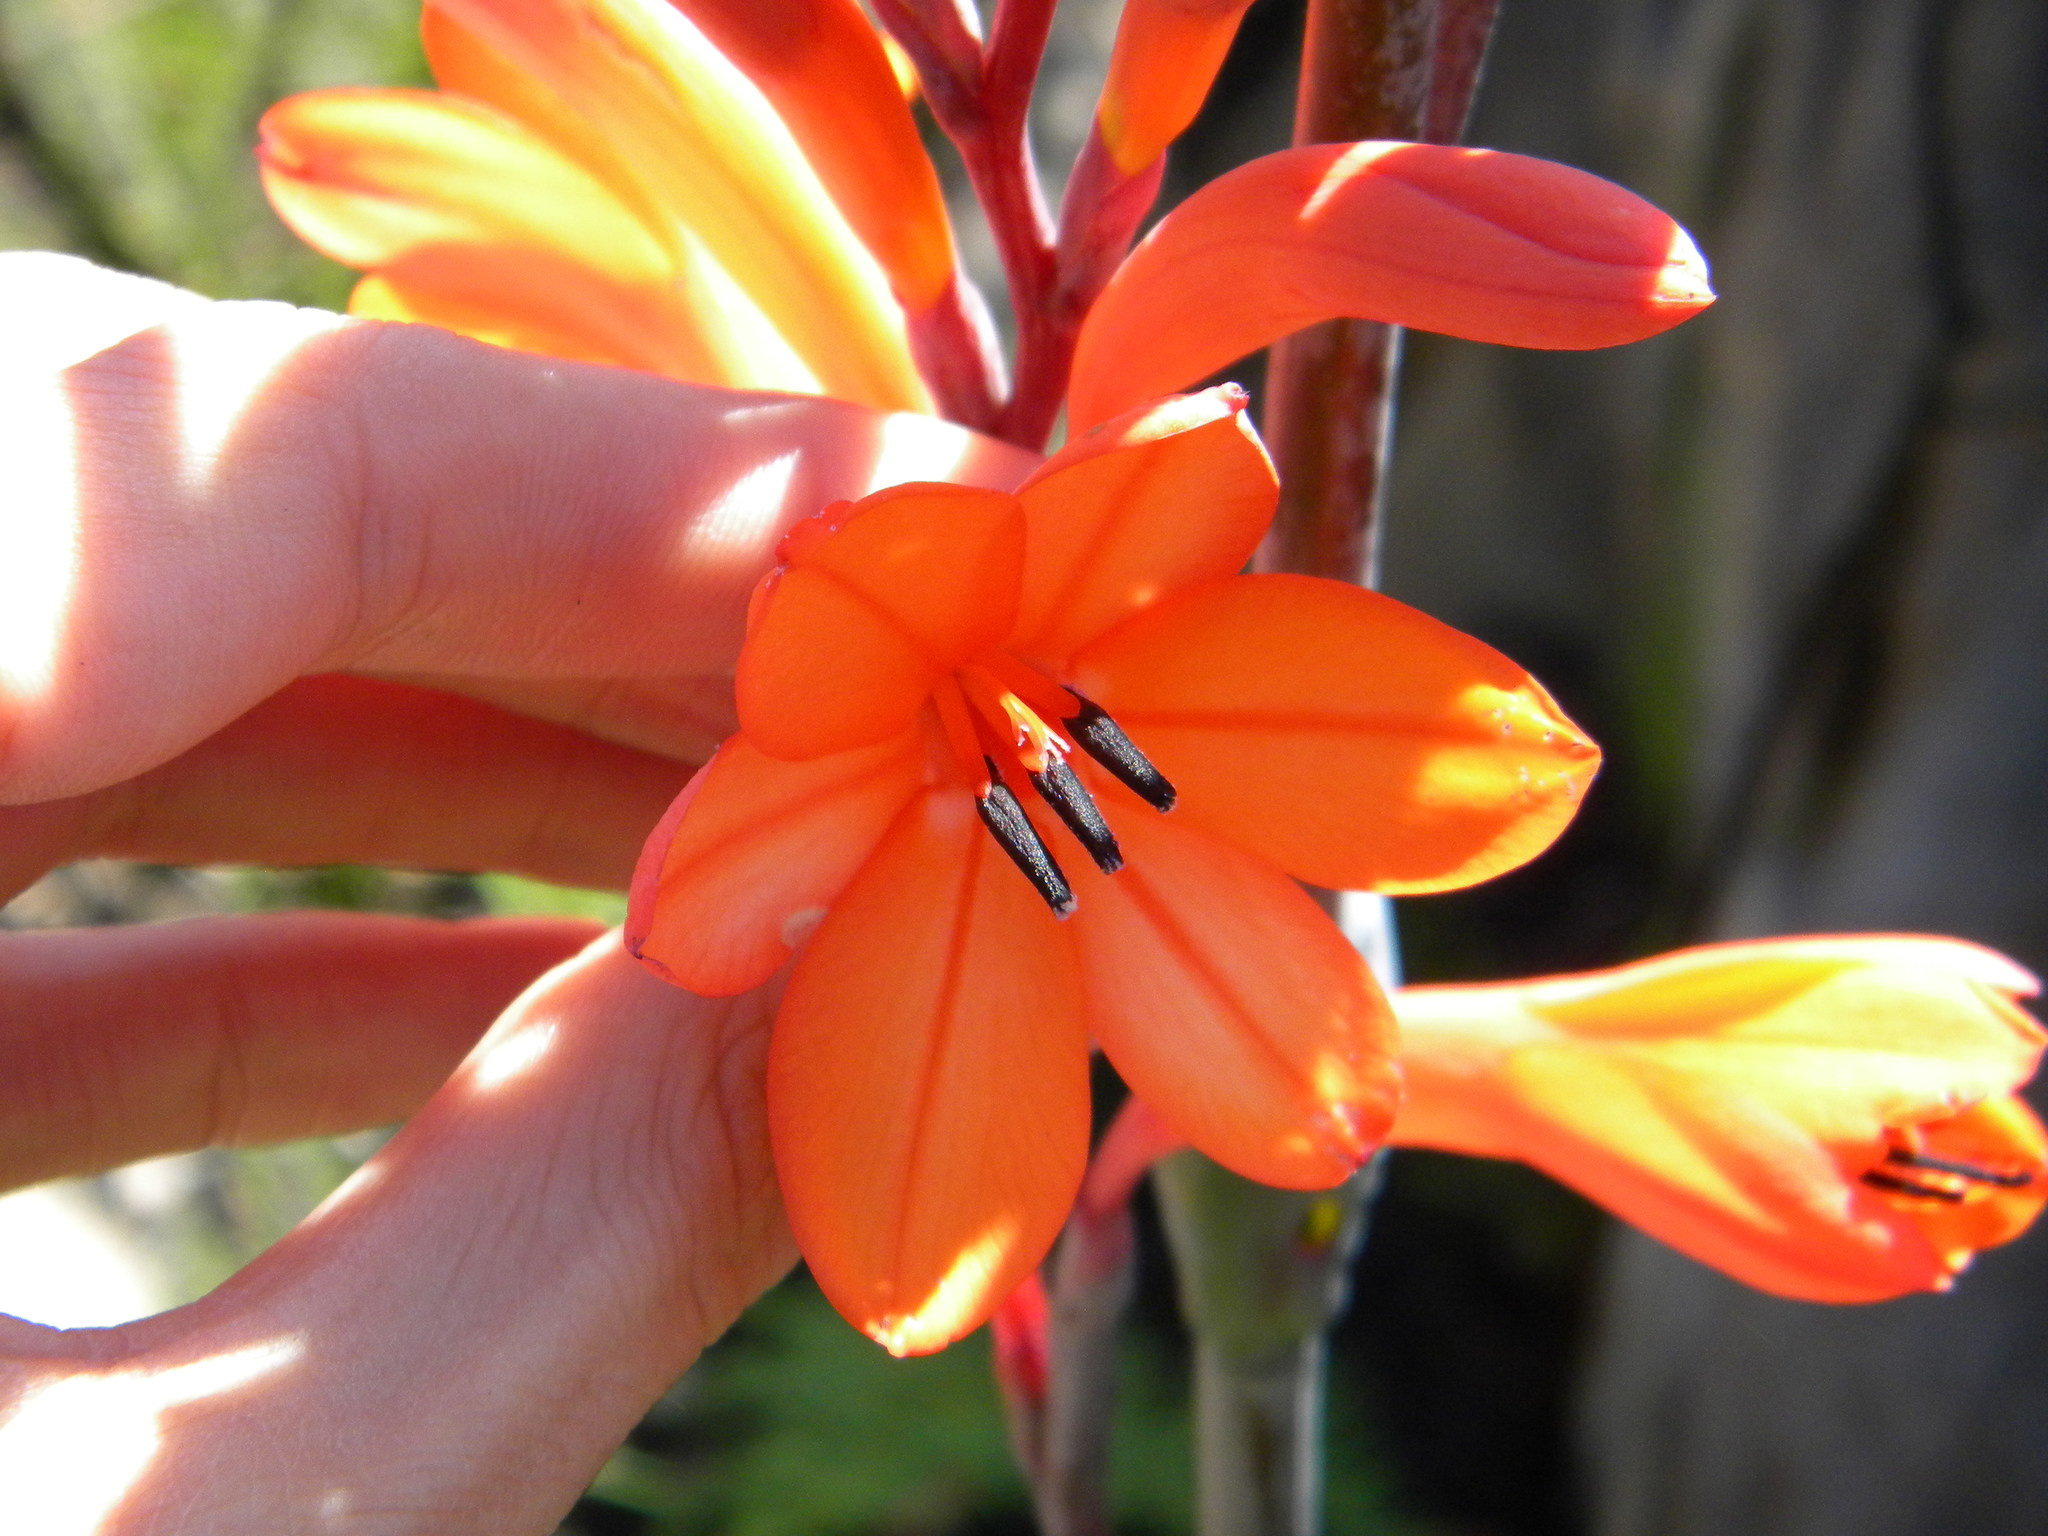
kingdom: Plantae
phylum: Tracheophyta
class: Liliopsida
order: Asparagales
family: Iridaceae
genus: Watsonia
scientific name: Watsonia tabularis
